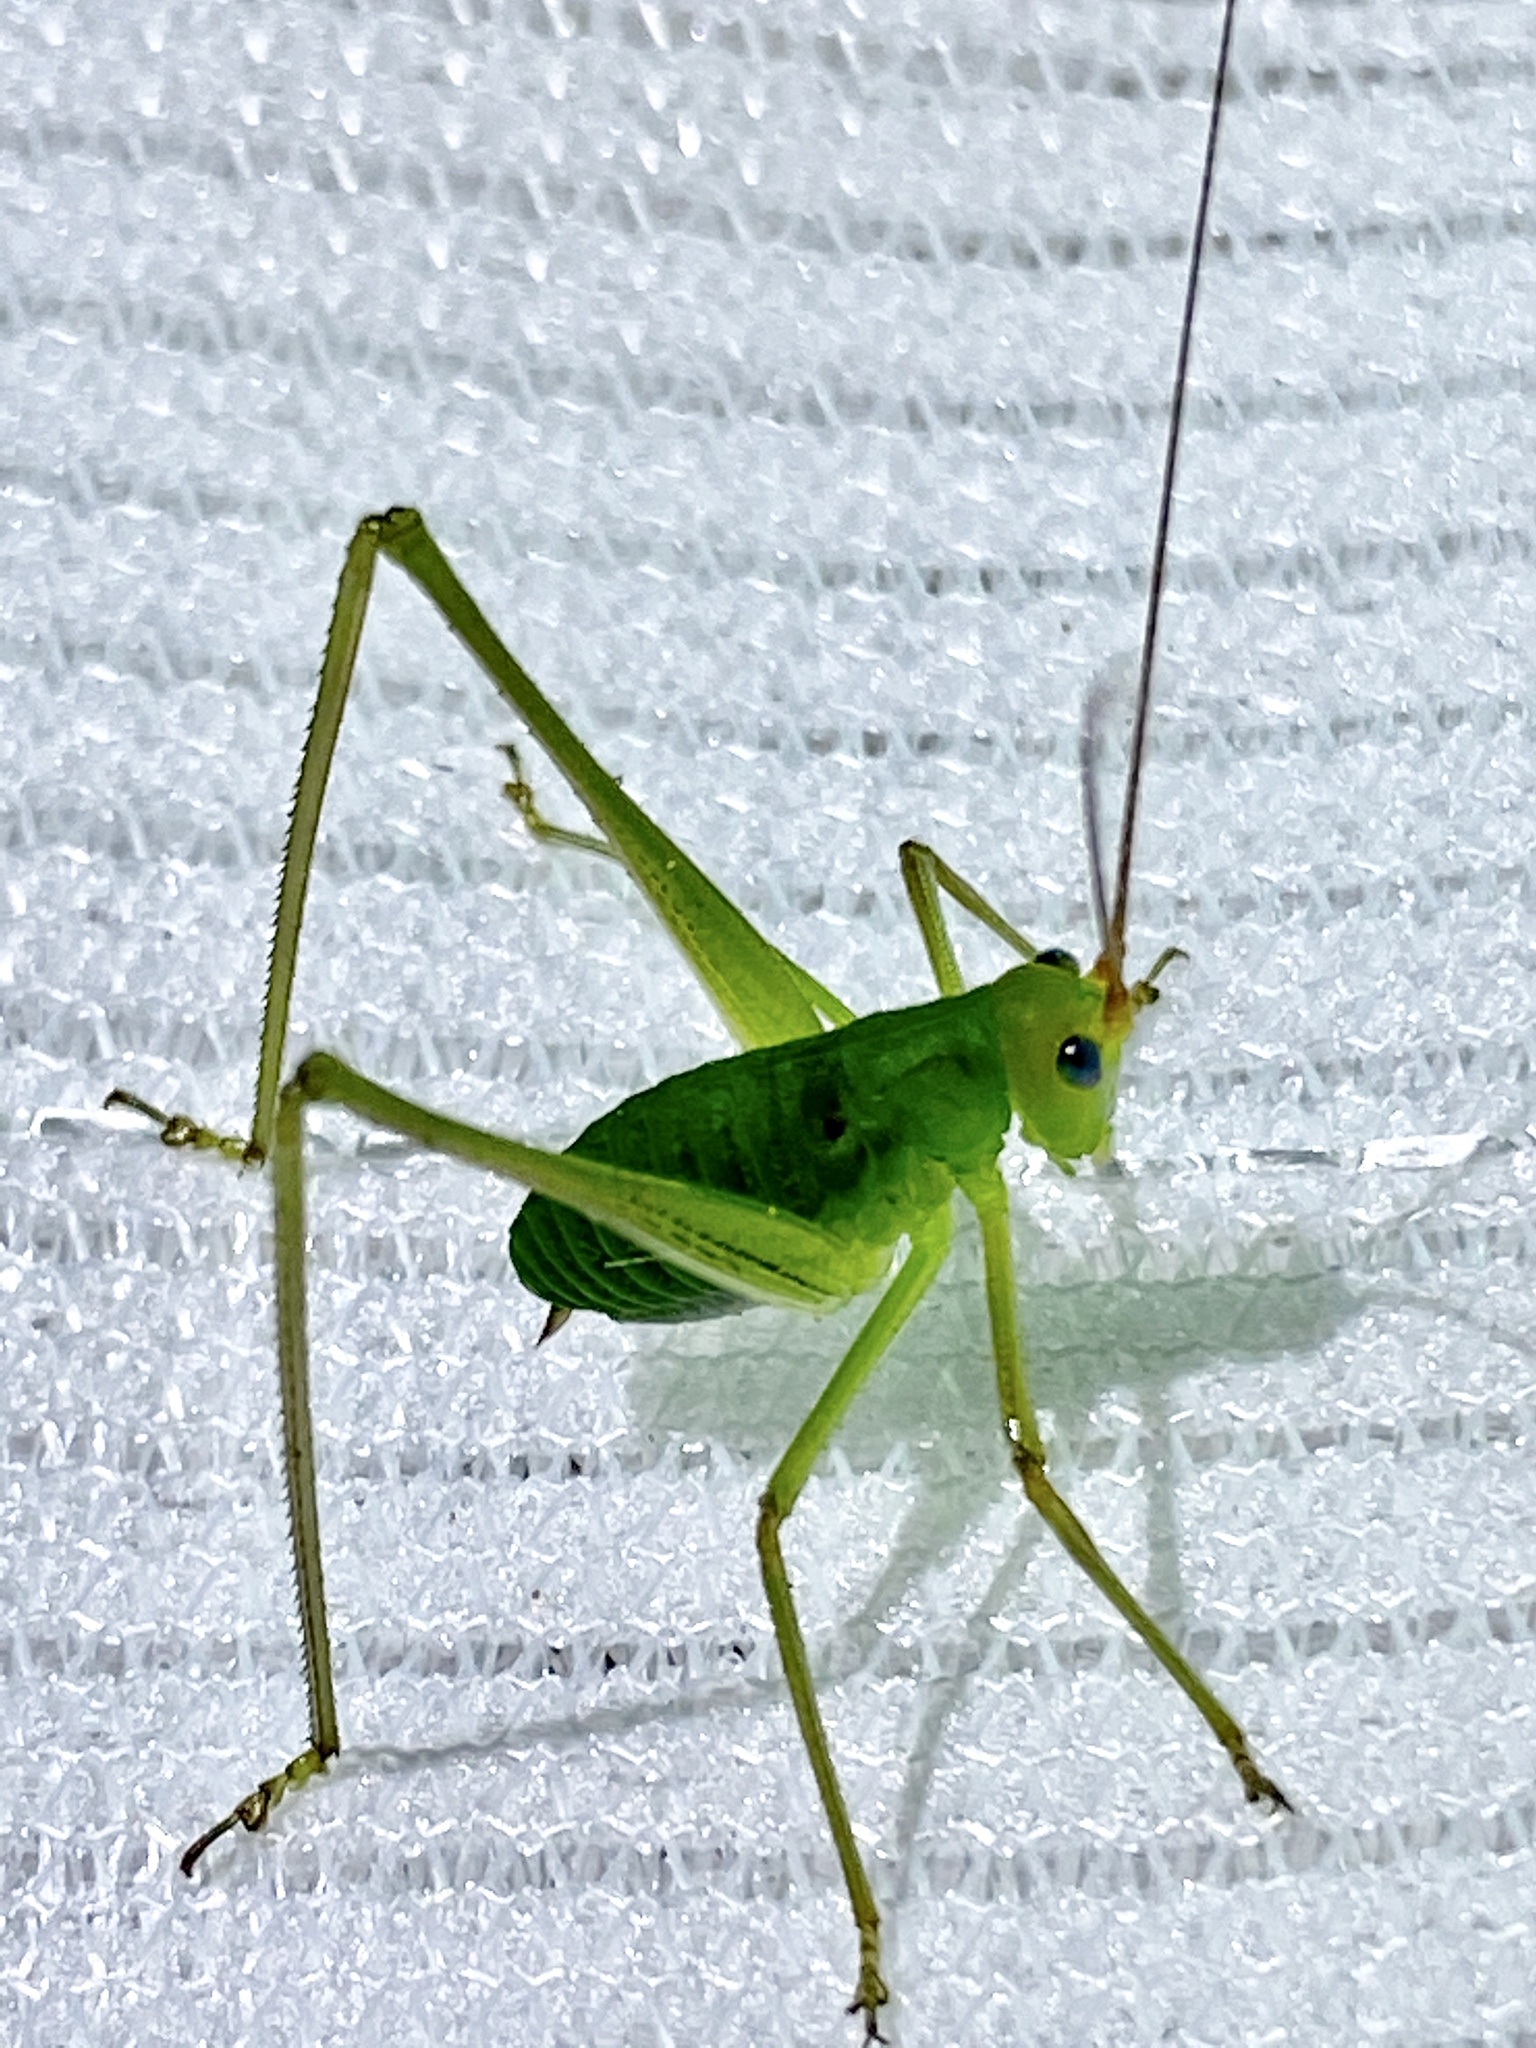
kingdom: Animalia
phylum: Arthropoda
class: Insecta
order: Orthoptera
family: Tettigoniidae
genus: Holochlora
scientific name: Holochlora japonica
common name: Japanese broadwinged katydid
